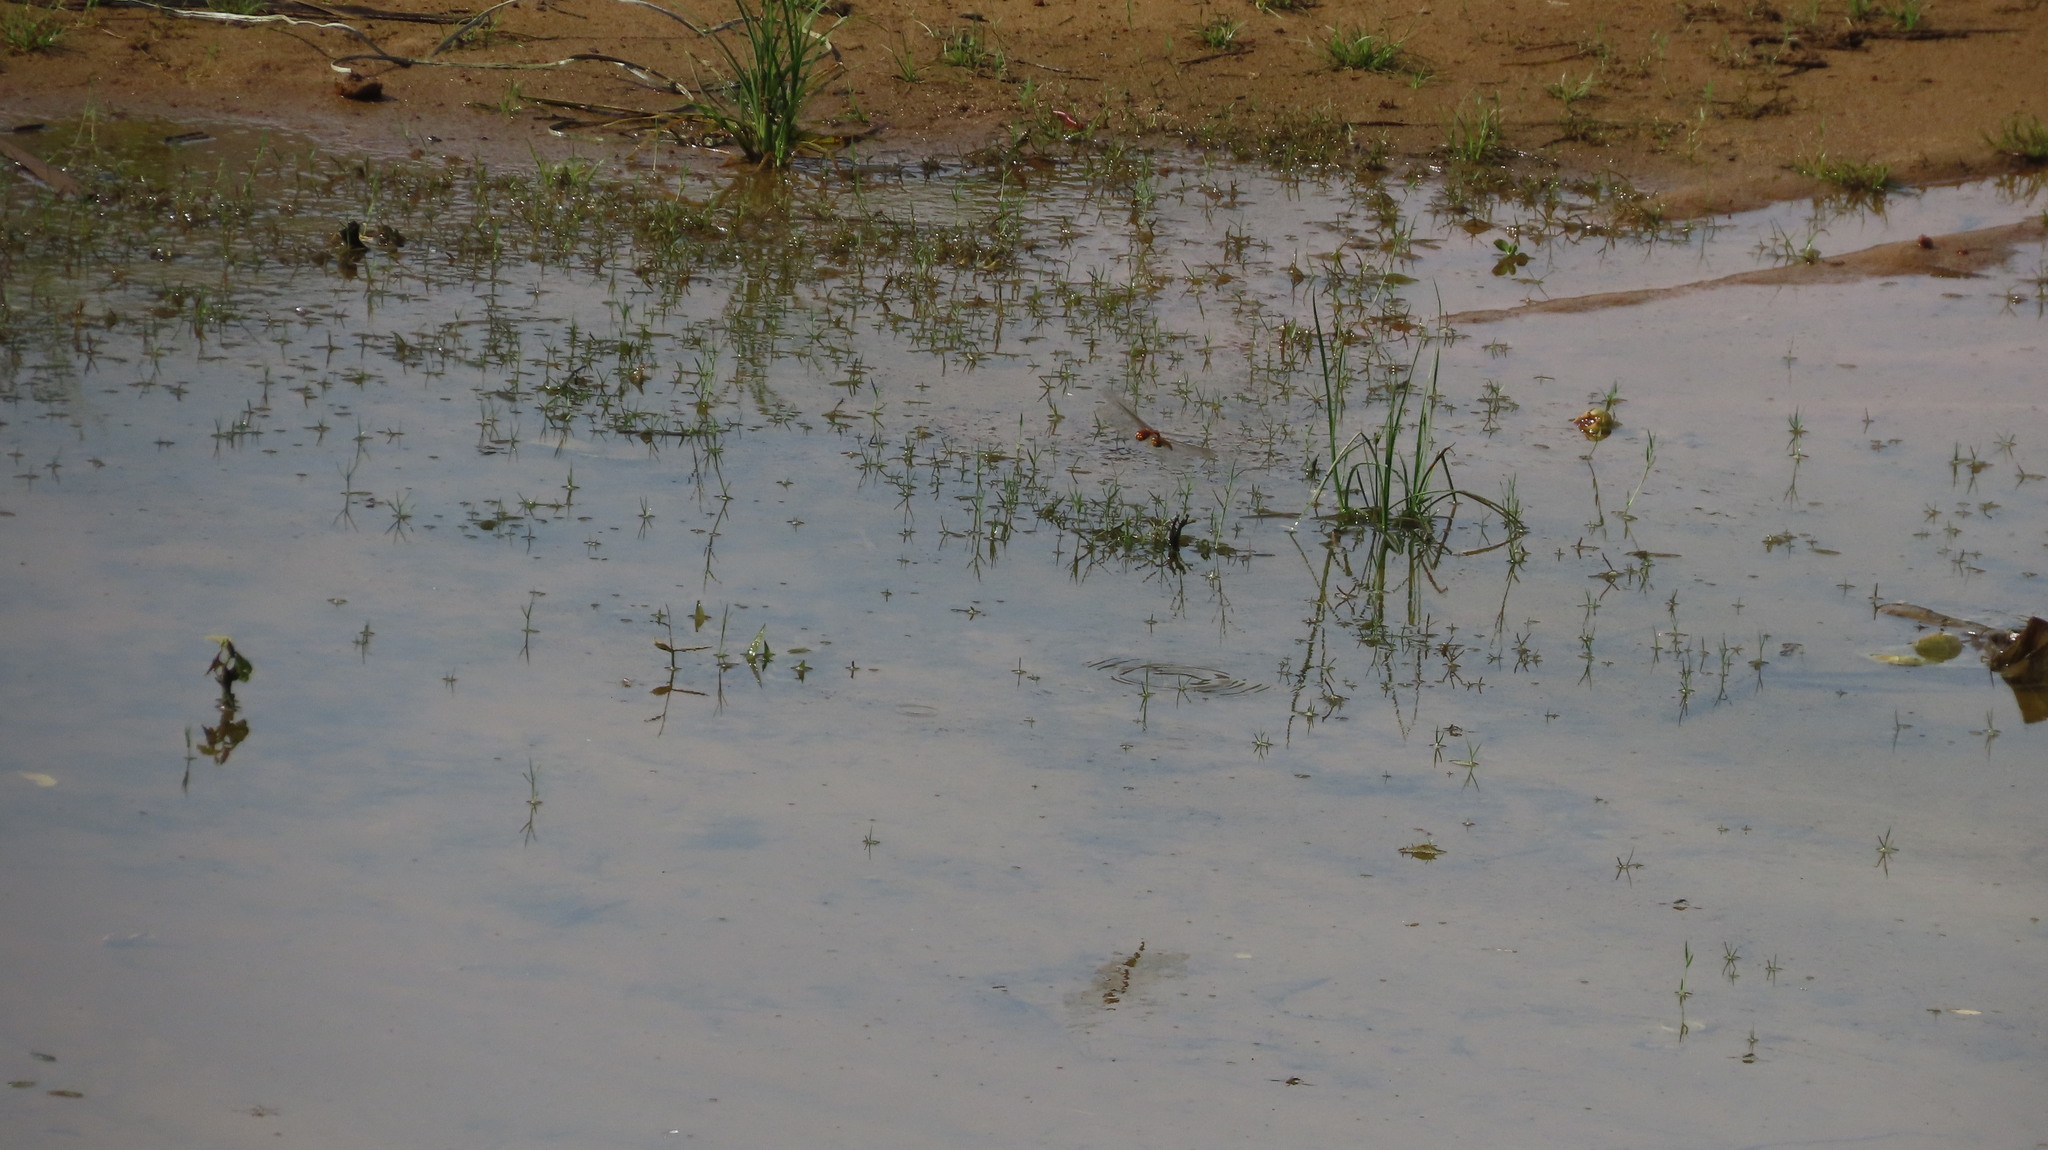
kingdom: Animalia
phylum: Arthropoda
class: Insecta
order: Odonata
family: Libellulidae
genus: Pantala
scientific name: Pantala flavescens
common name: Wandering glider
